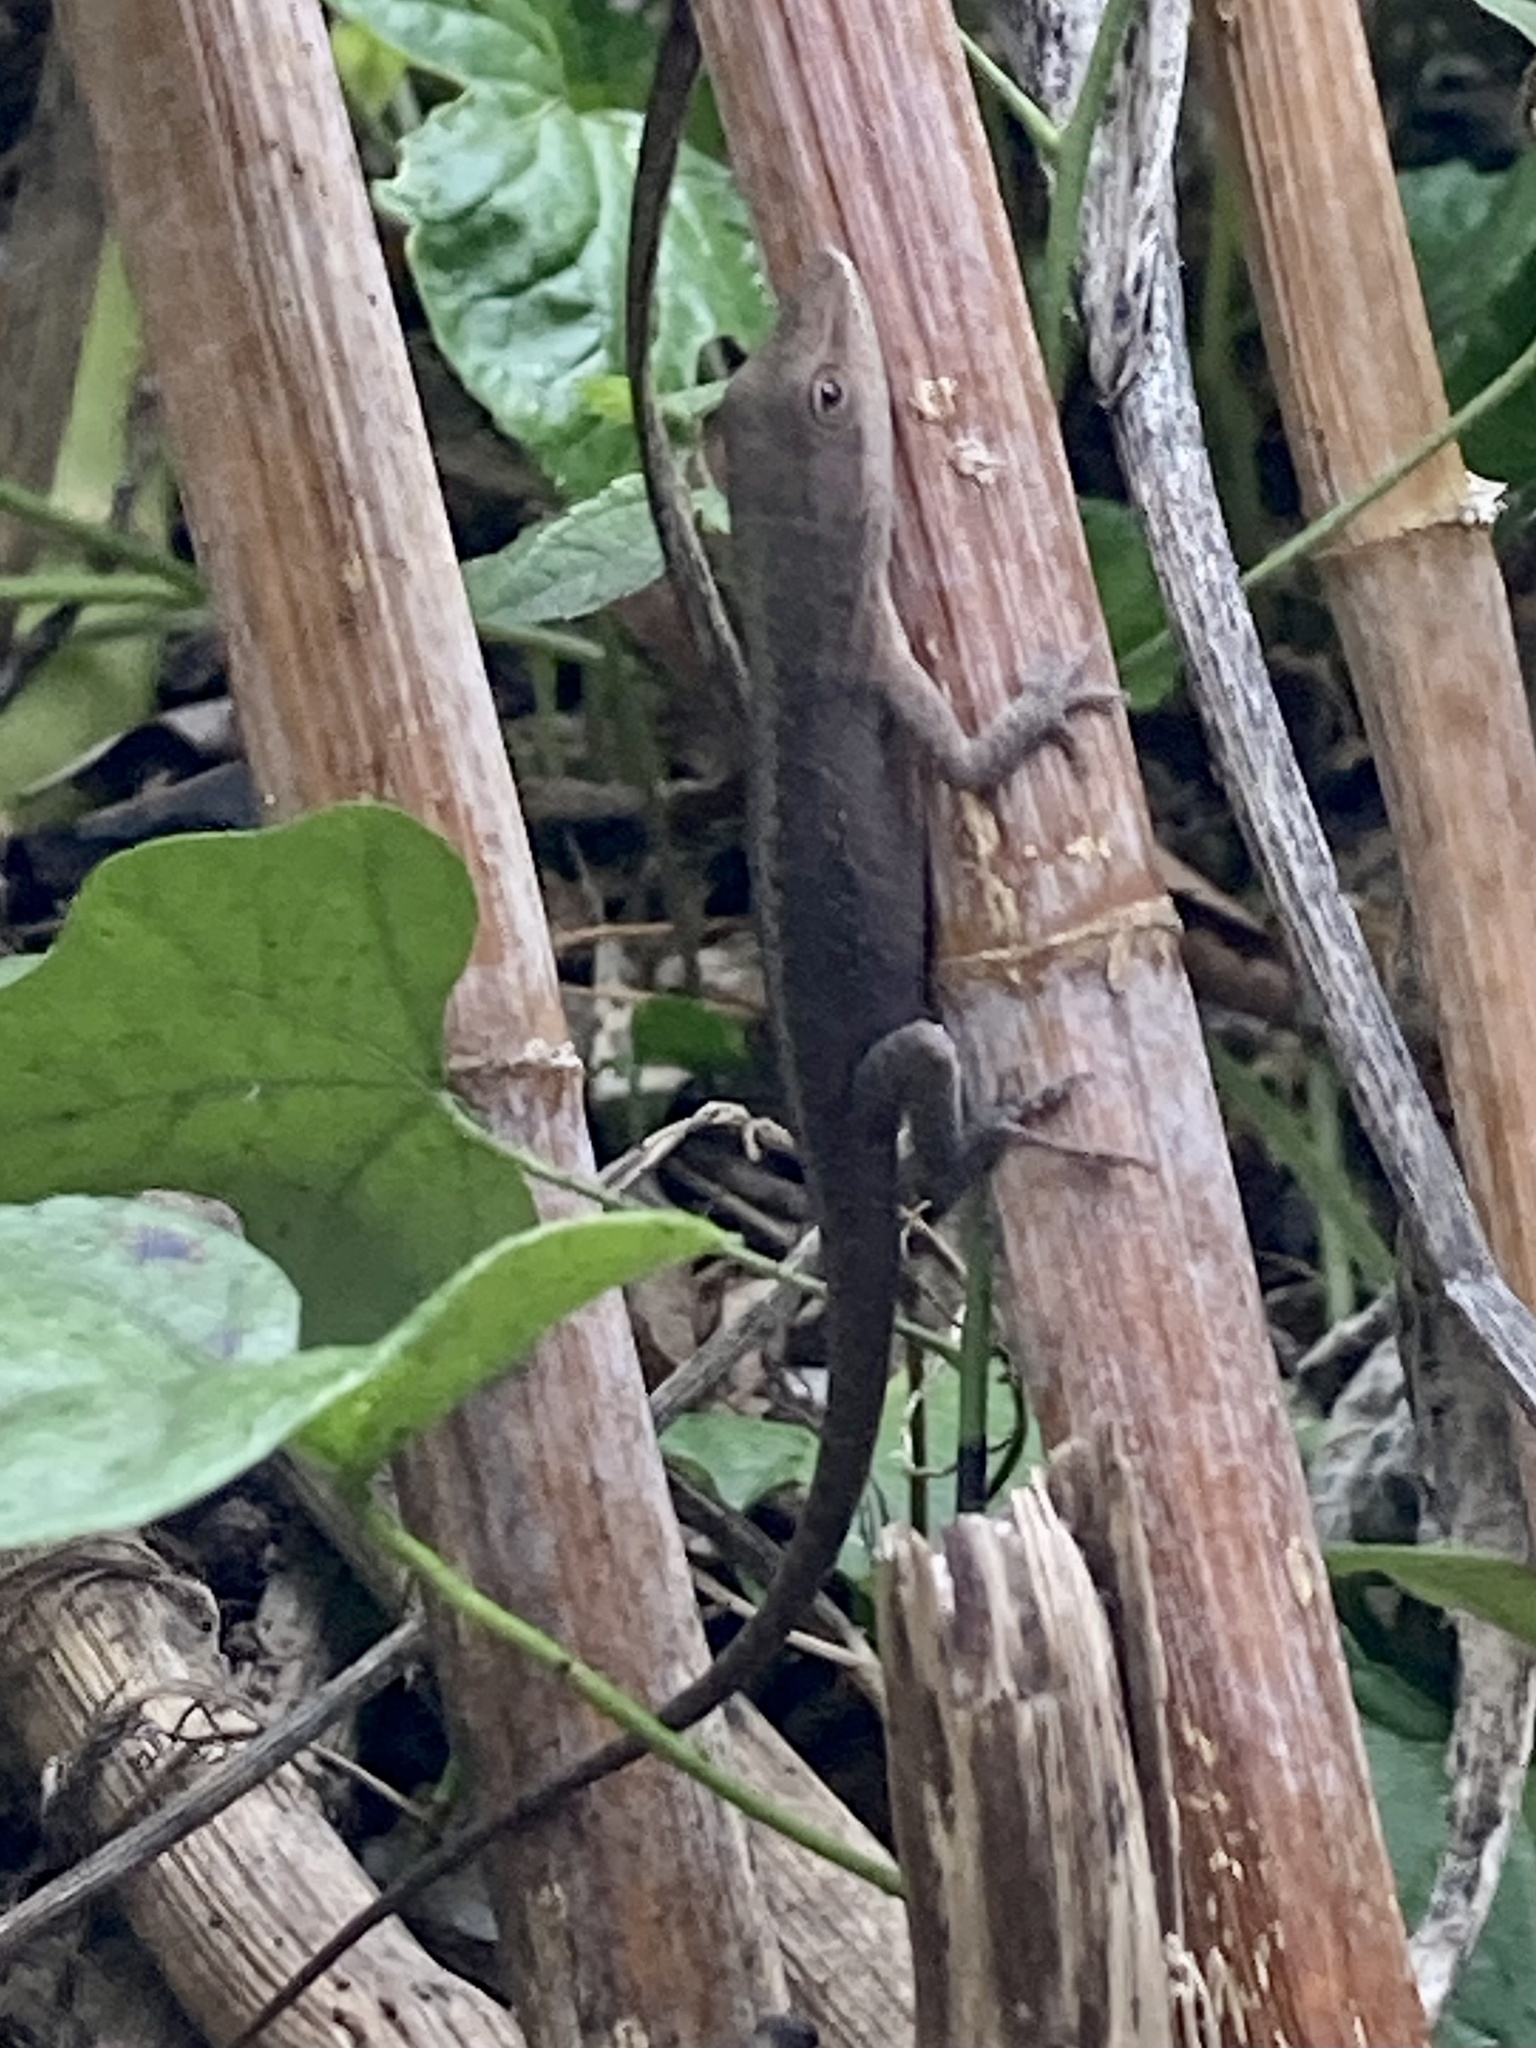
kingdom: Animalia
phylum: Chordata
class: Squamata
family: Dactyloidae
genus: Anolis
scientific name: Anolis carolinensis
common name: Green anole
